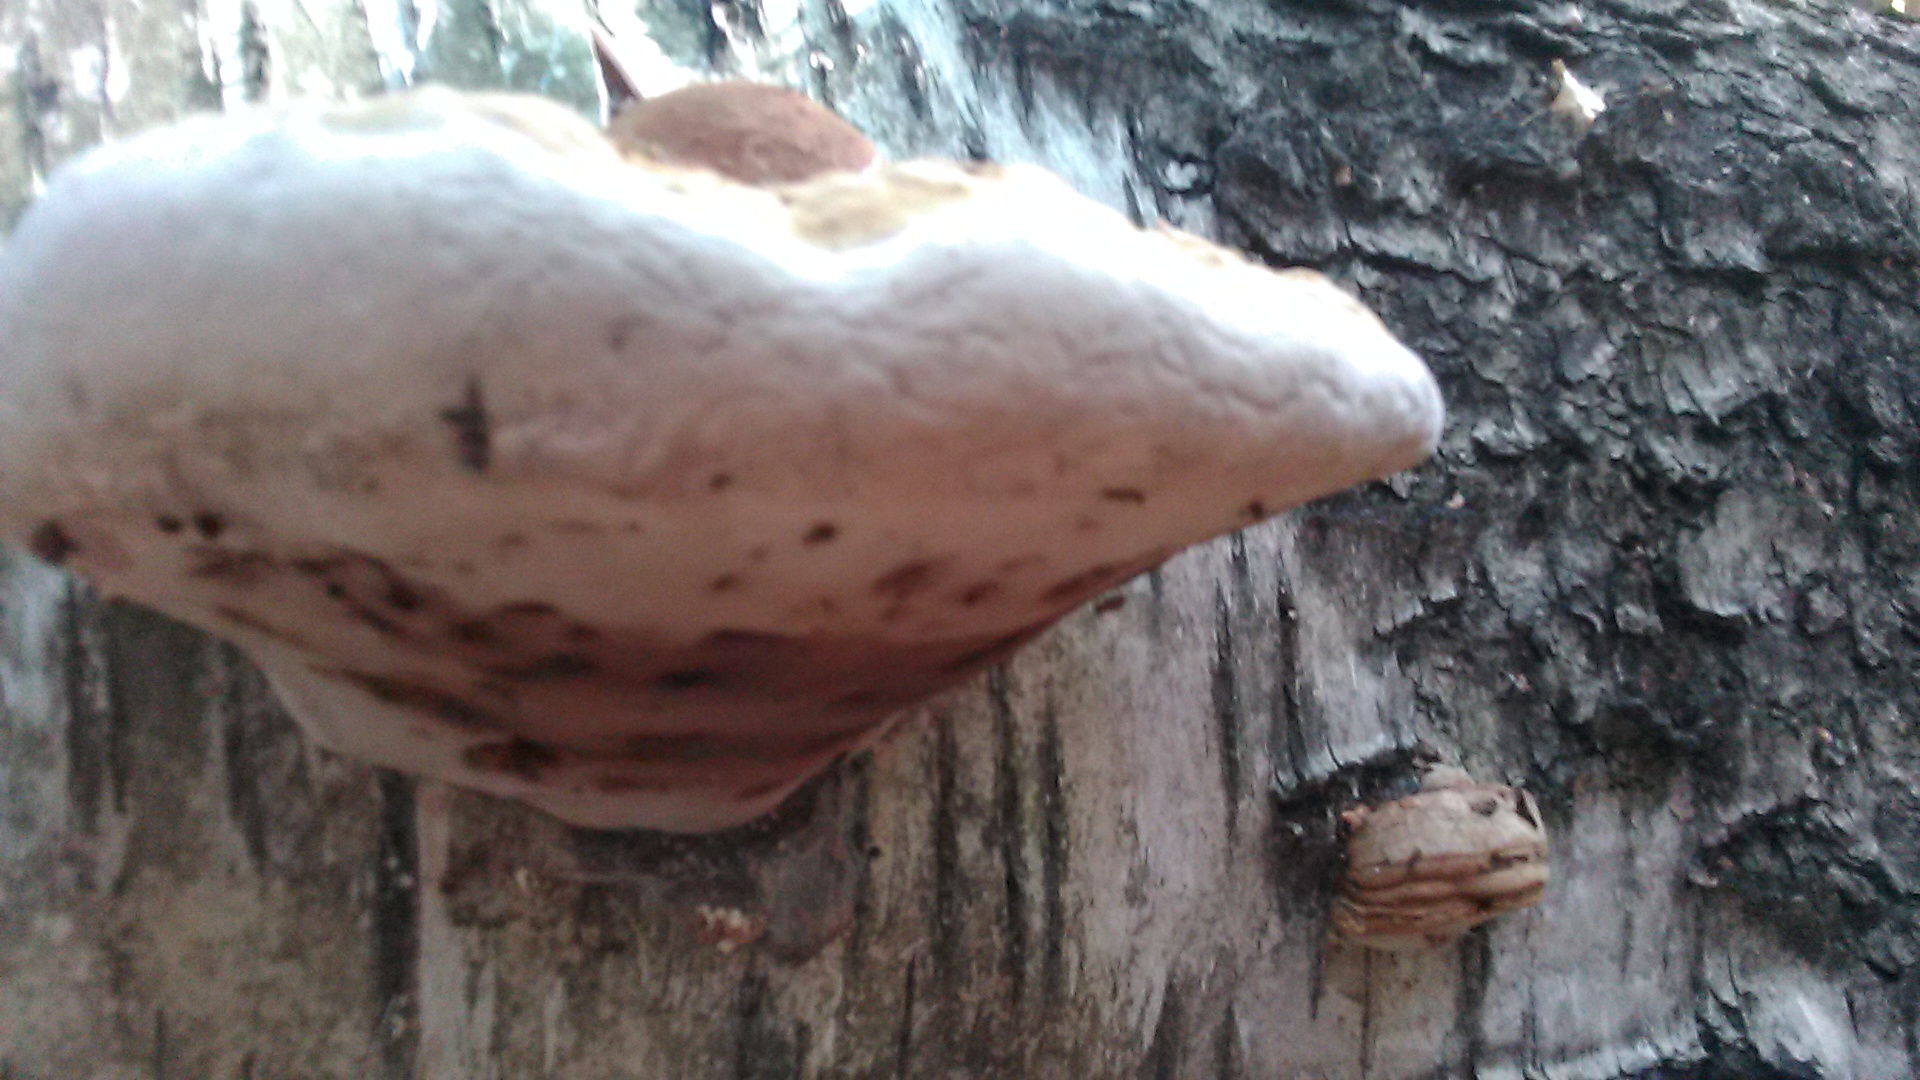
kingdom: Fungi
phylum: Basidiomycota
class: Agaricomycetes
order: Polyporales
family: Polyporaceae
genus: Fomes
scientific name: Fomes fomentarius
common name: Hoof fungus
